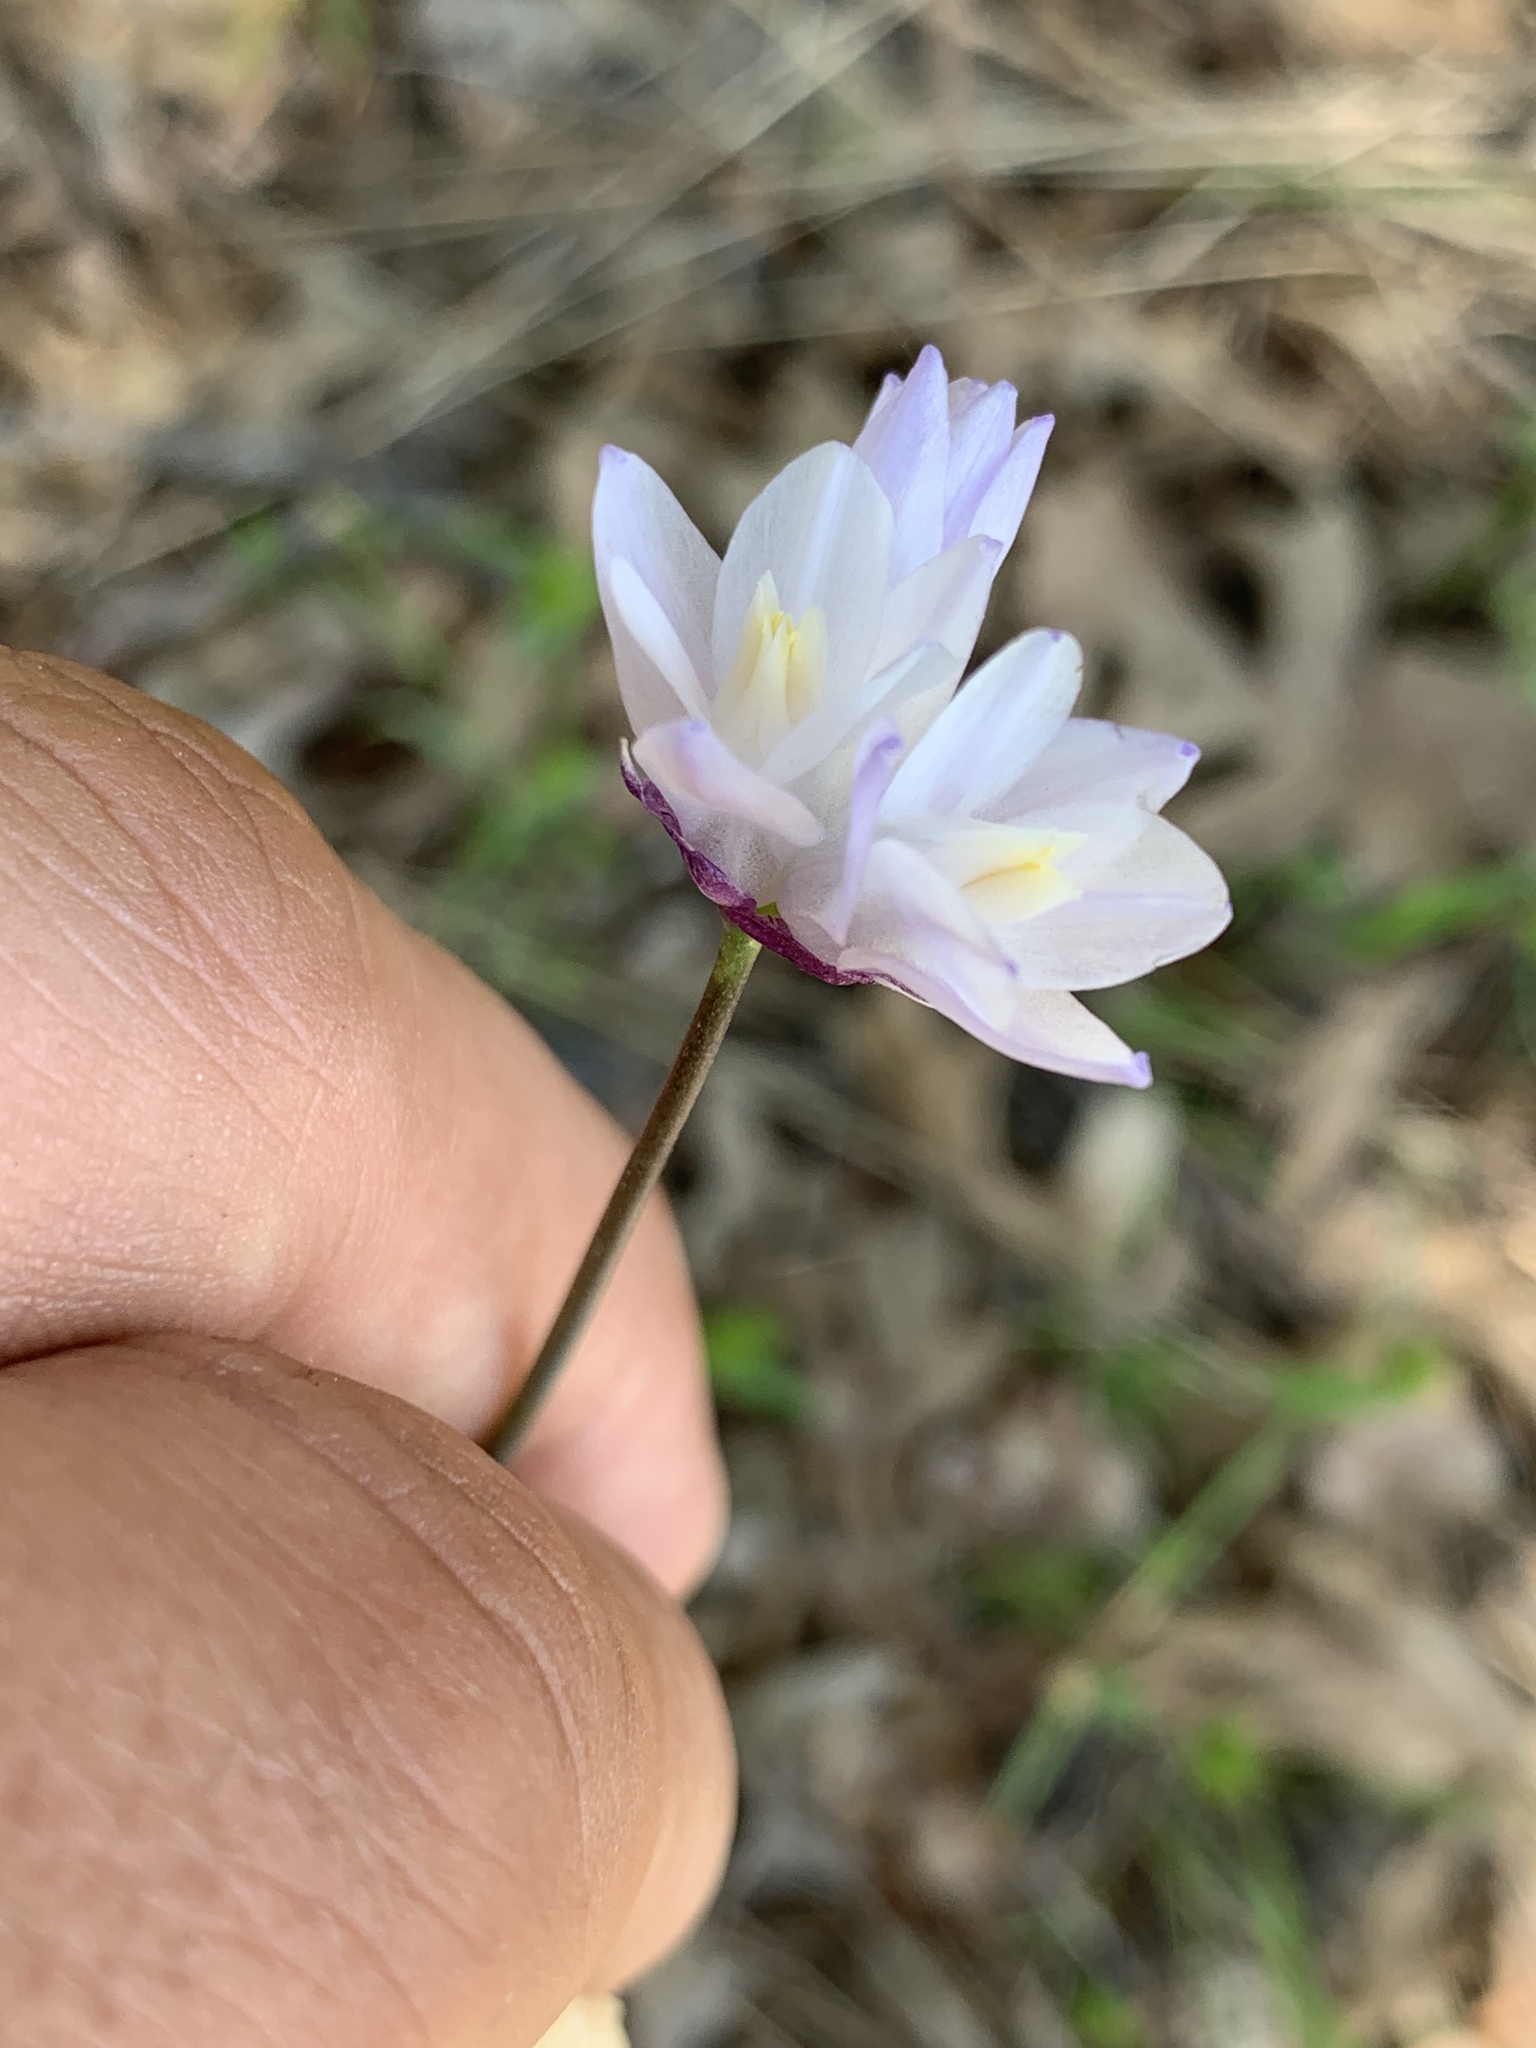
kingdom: Plantae
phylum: Tracheophyta
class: Liliopsida
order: Asparagales
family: Asparagaceae
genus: Dipterostemon
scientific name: Dipterostemon capitatus
